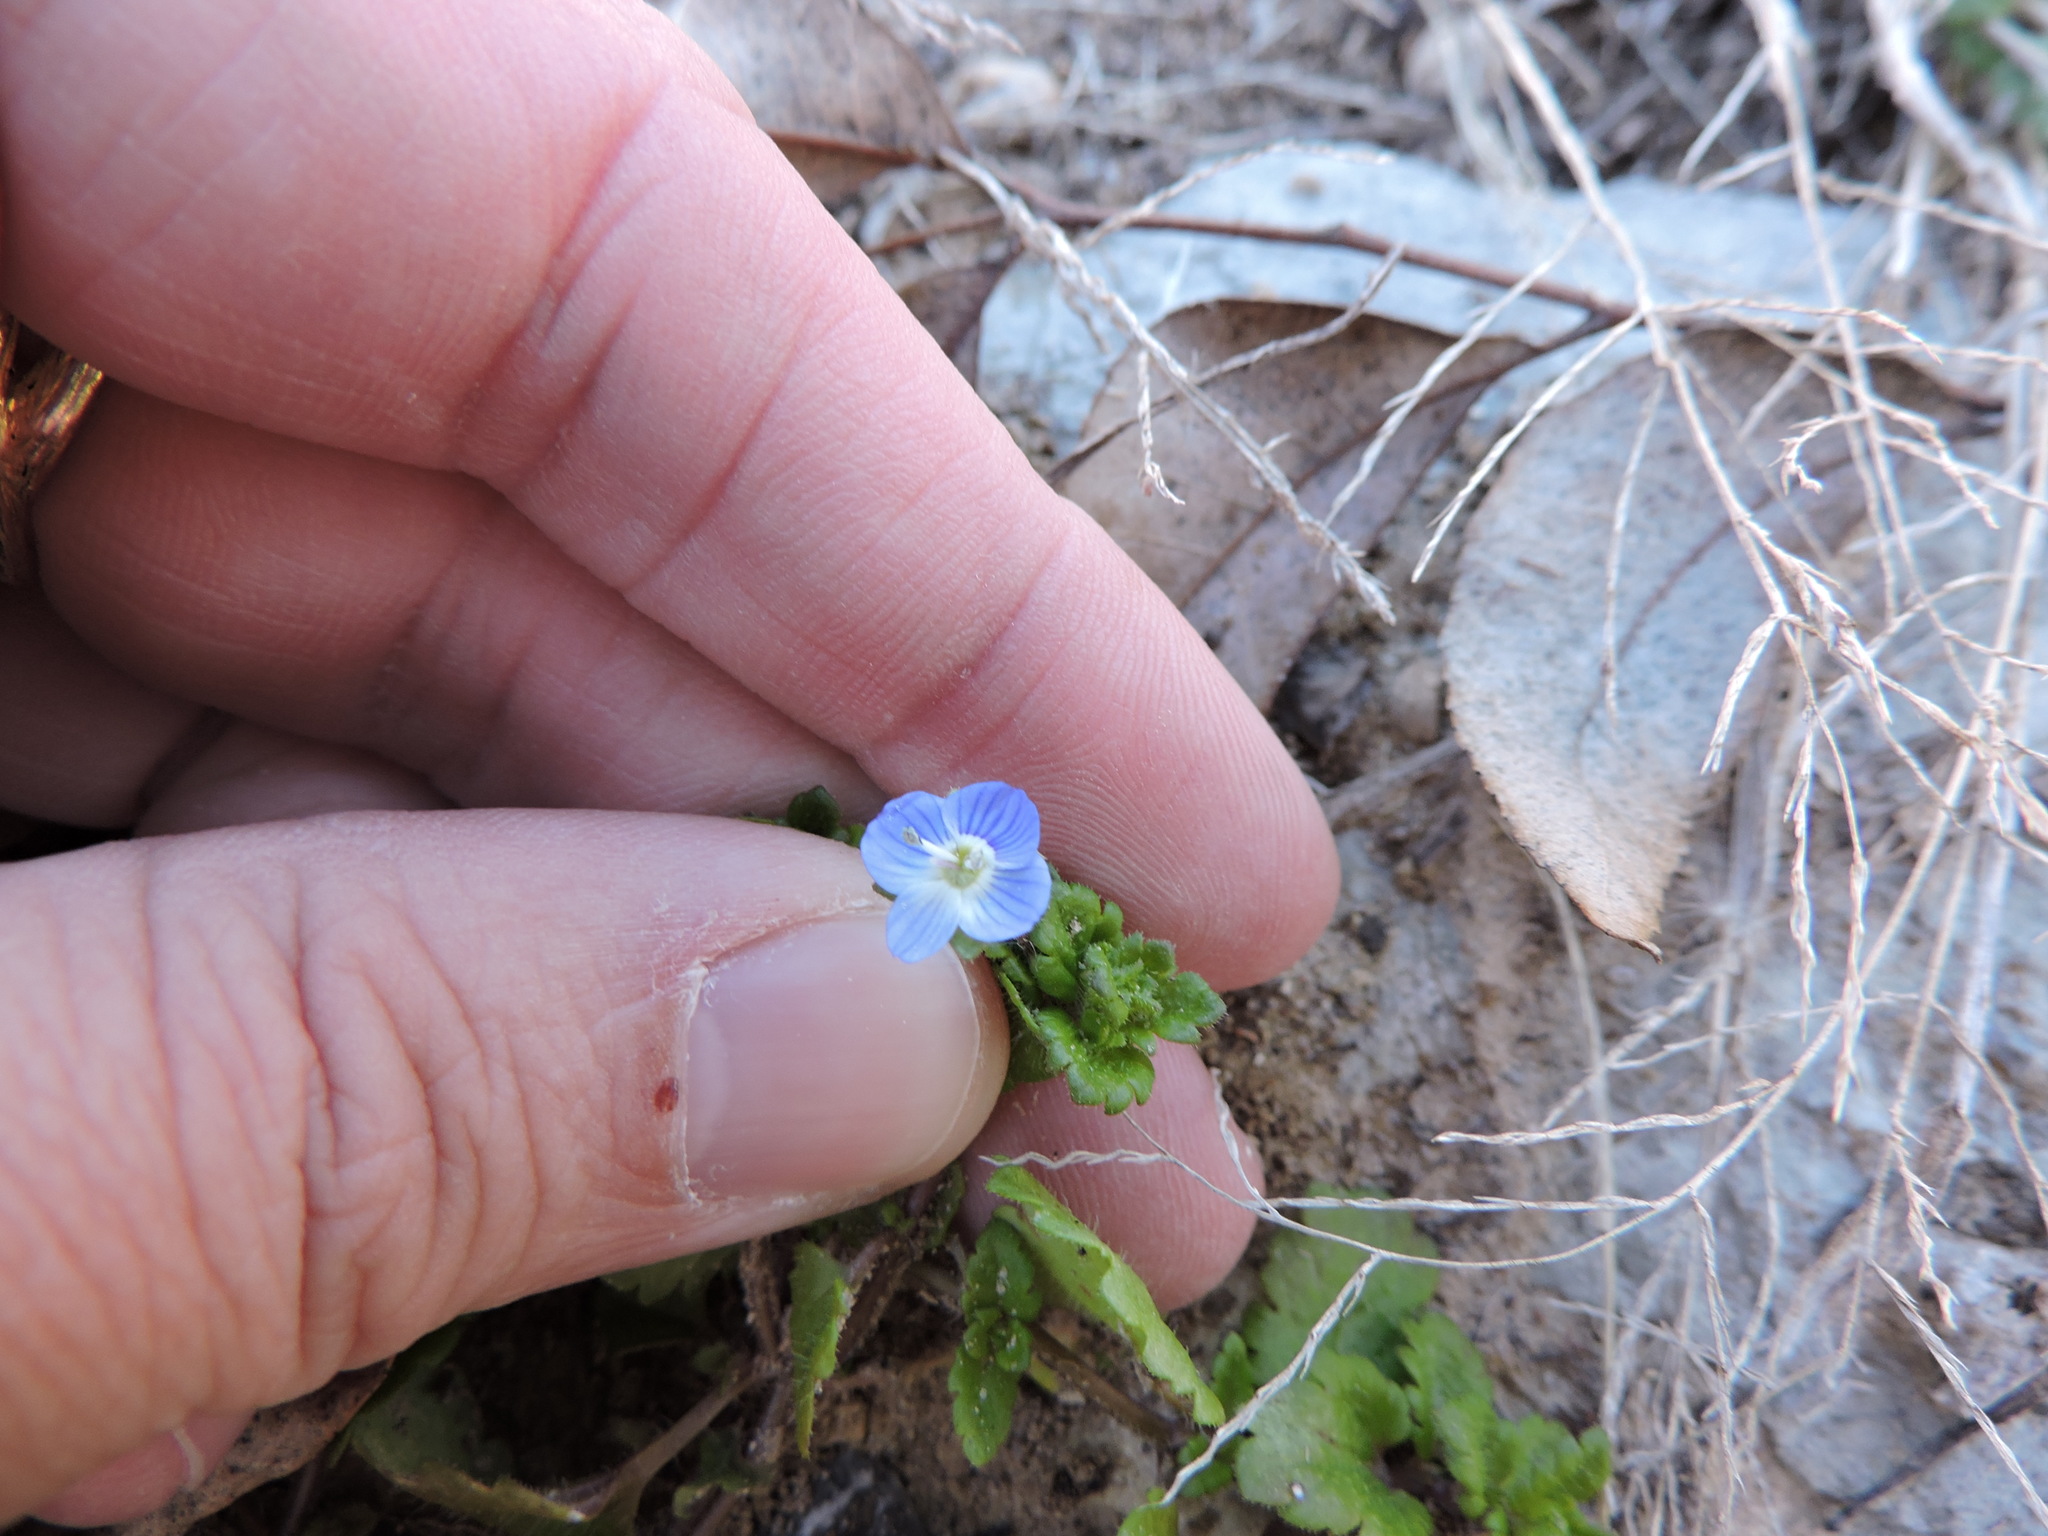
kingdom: Plantae
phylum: Tracheophyta
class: Magnoliopsida
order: Lamiales
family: Plantaginaceae
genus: Veronica
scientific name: Veronica persica
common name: Common field-speedwell
